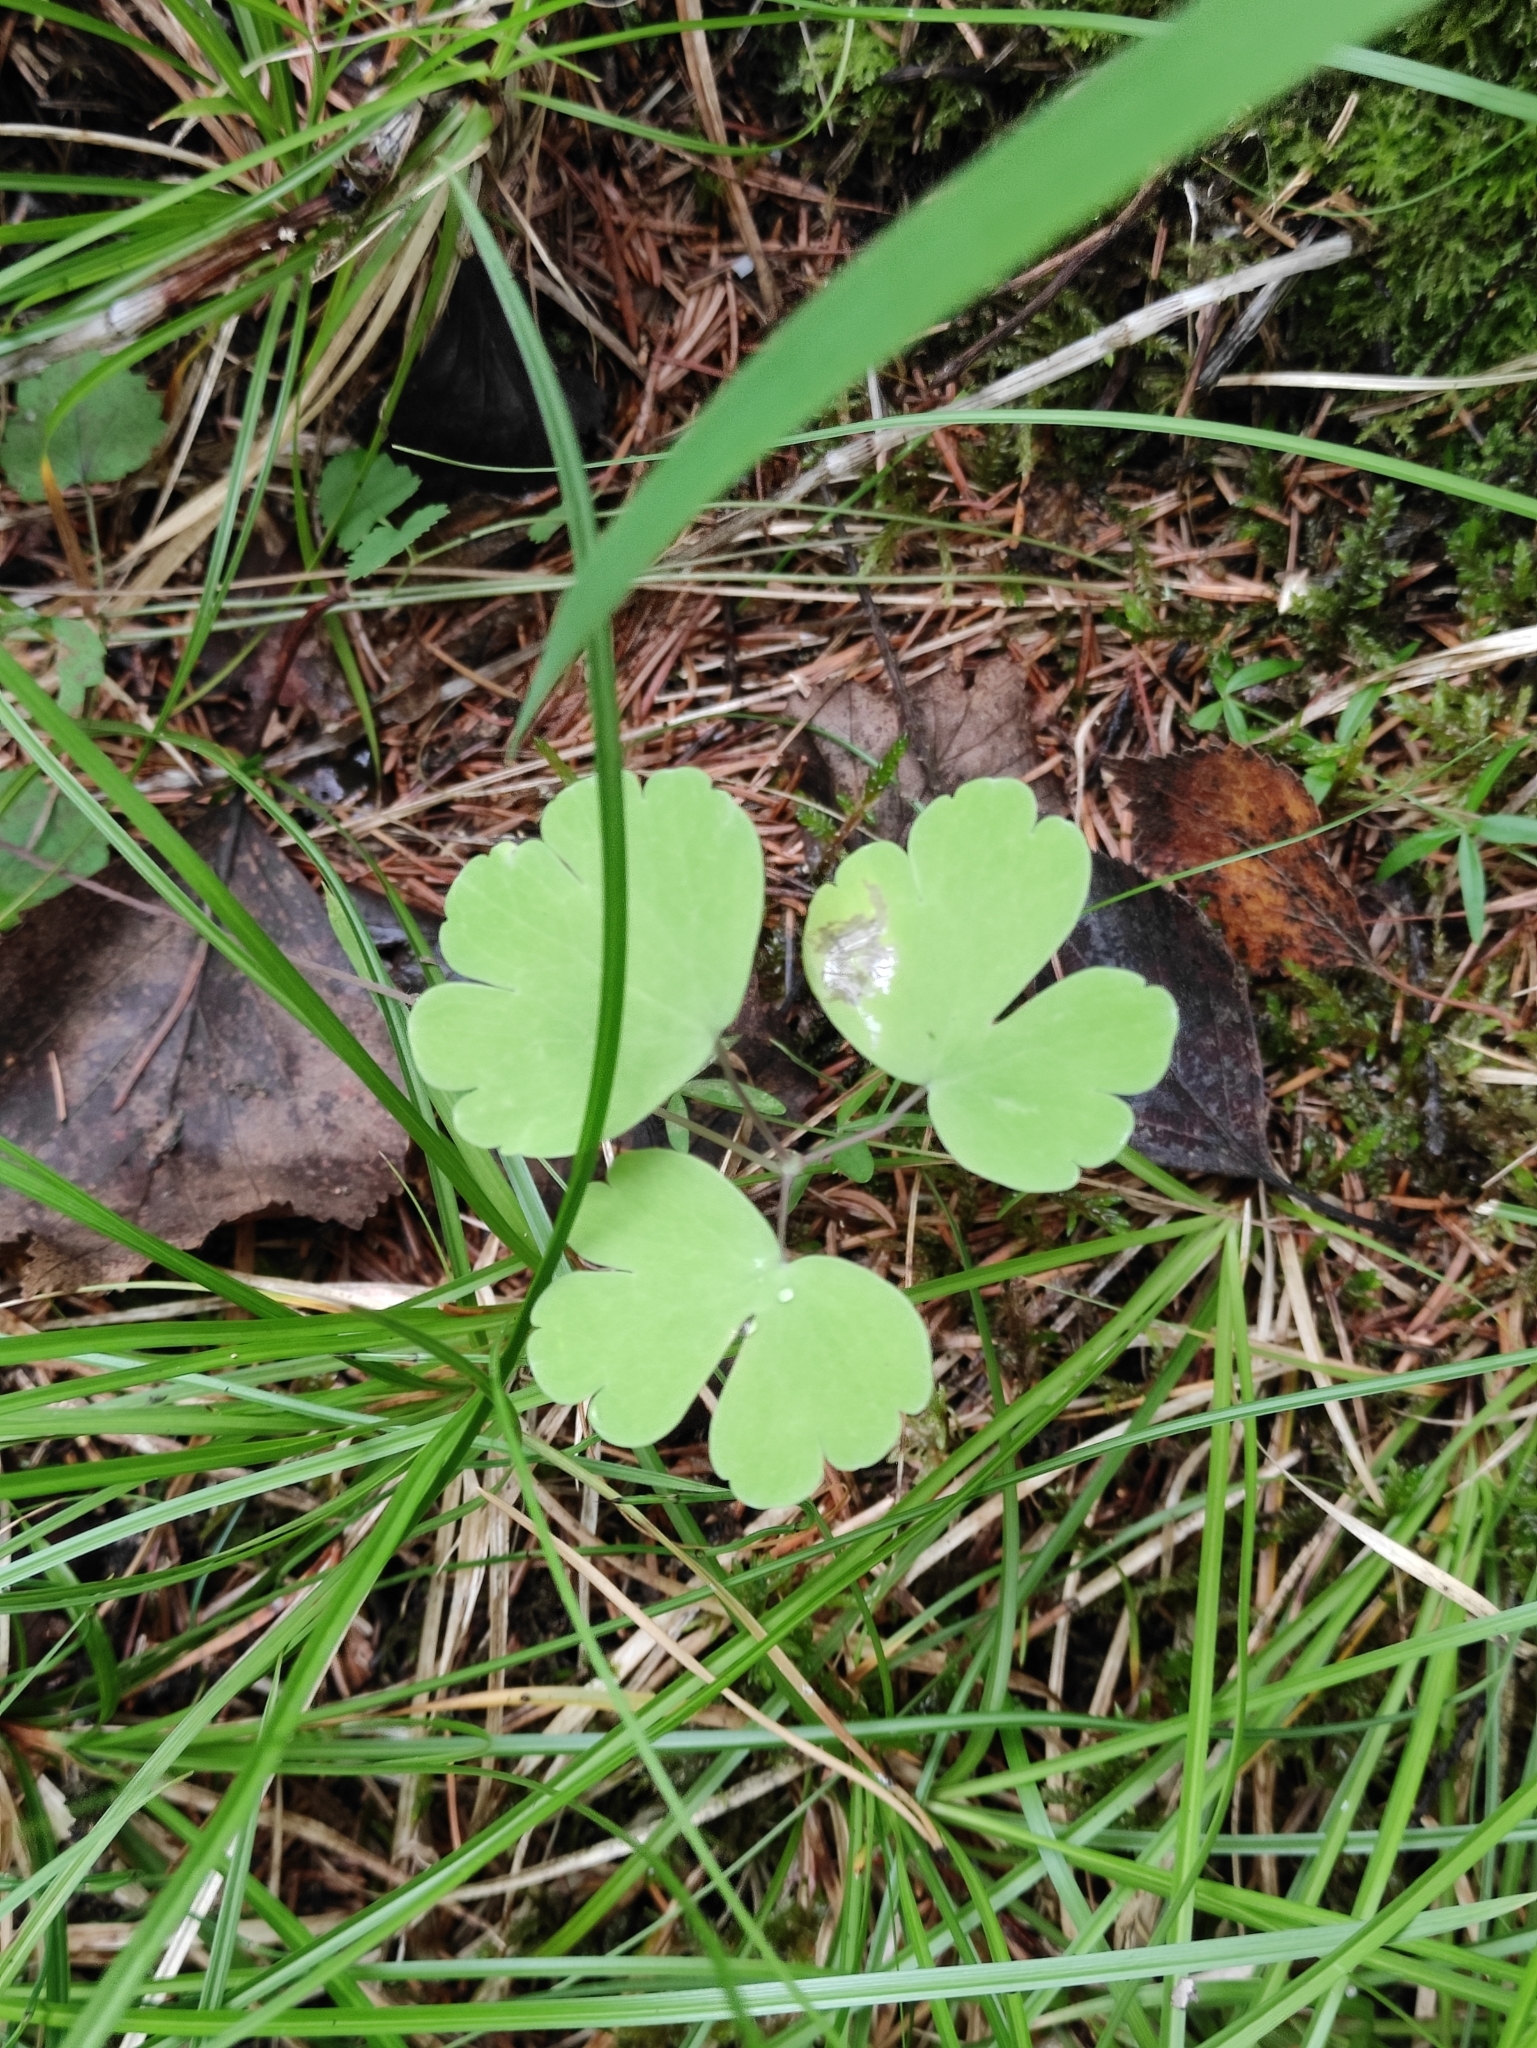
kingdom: Plantae
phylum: Tracheophyta
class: Magnoliopsida
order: Dipsacales
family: Viburnaceae
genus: Adoxa
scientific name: Adoxa moschatellina
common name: Moschatel
